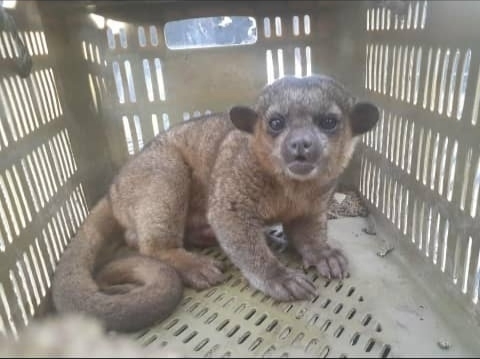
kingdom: Animalia
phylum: Chordata
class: Mammalia
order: Carnivora
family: Procyonidae
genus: Potos
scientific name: Potos flavus
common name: Kinkajou
